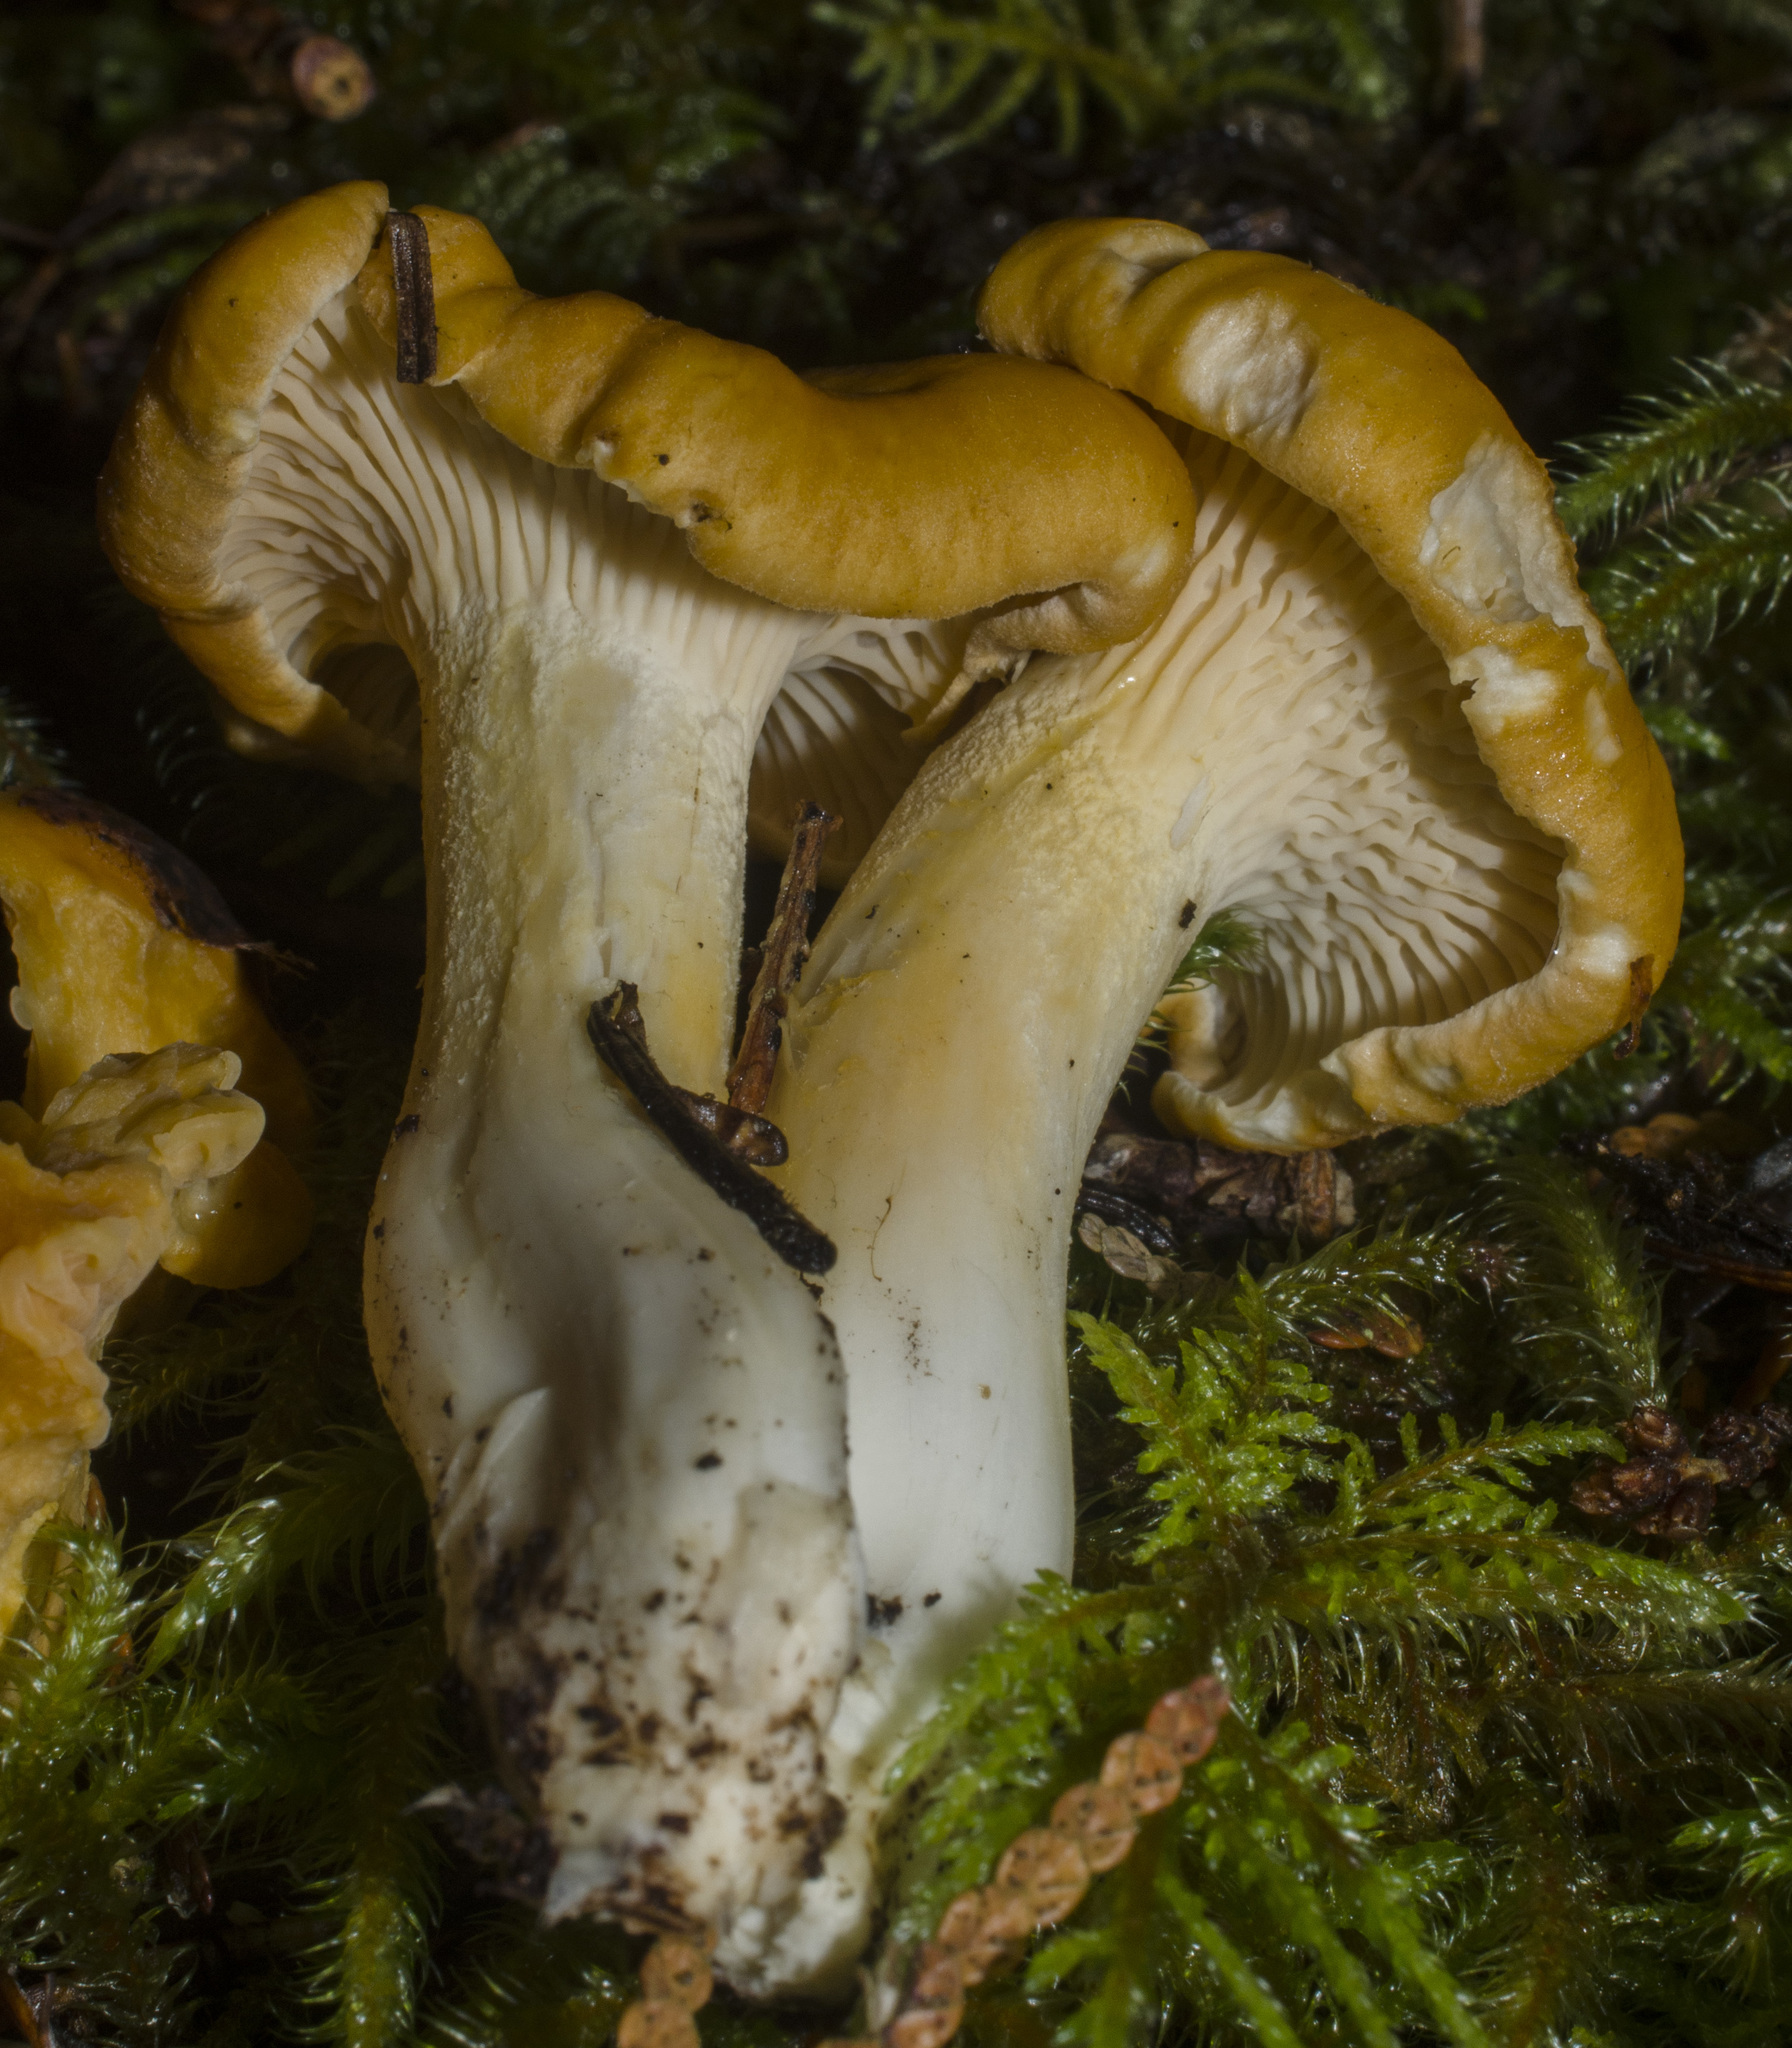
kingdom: Fungi
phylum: Basidiomycota
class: Agaricomycetes
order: Cantharellales
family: Hydnaceae
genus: Cantharellus
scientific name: Cantharellus formosus
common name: Pacific golden chanterelle
